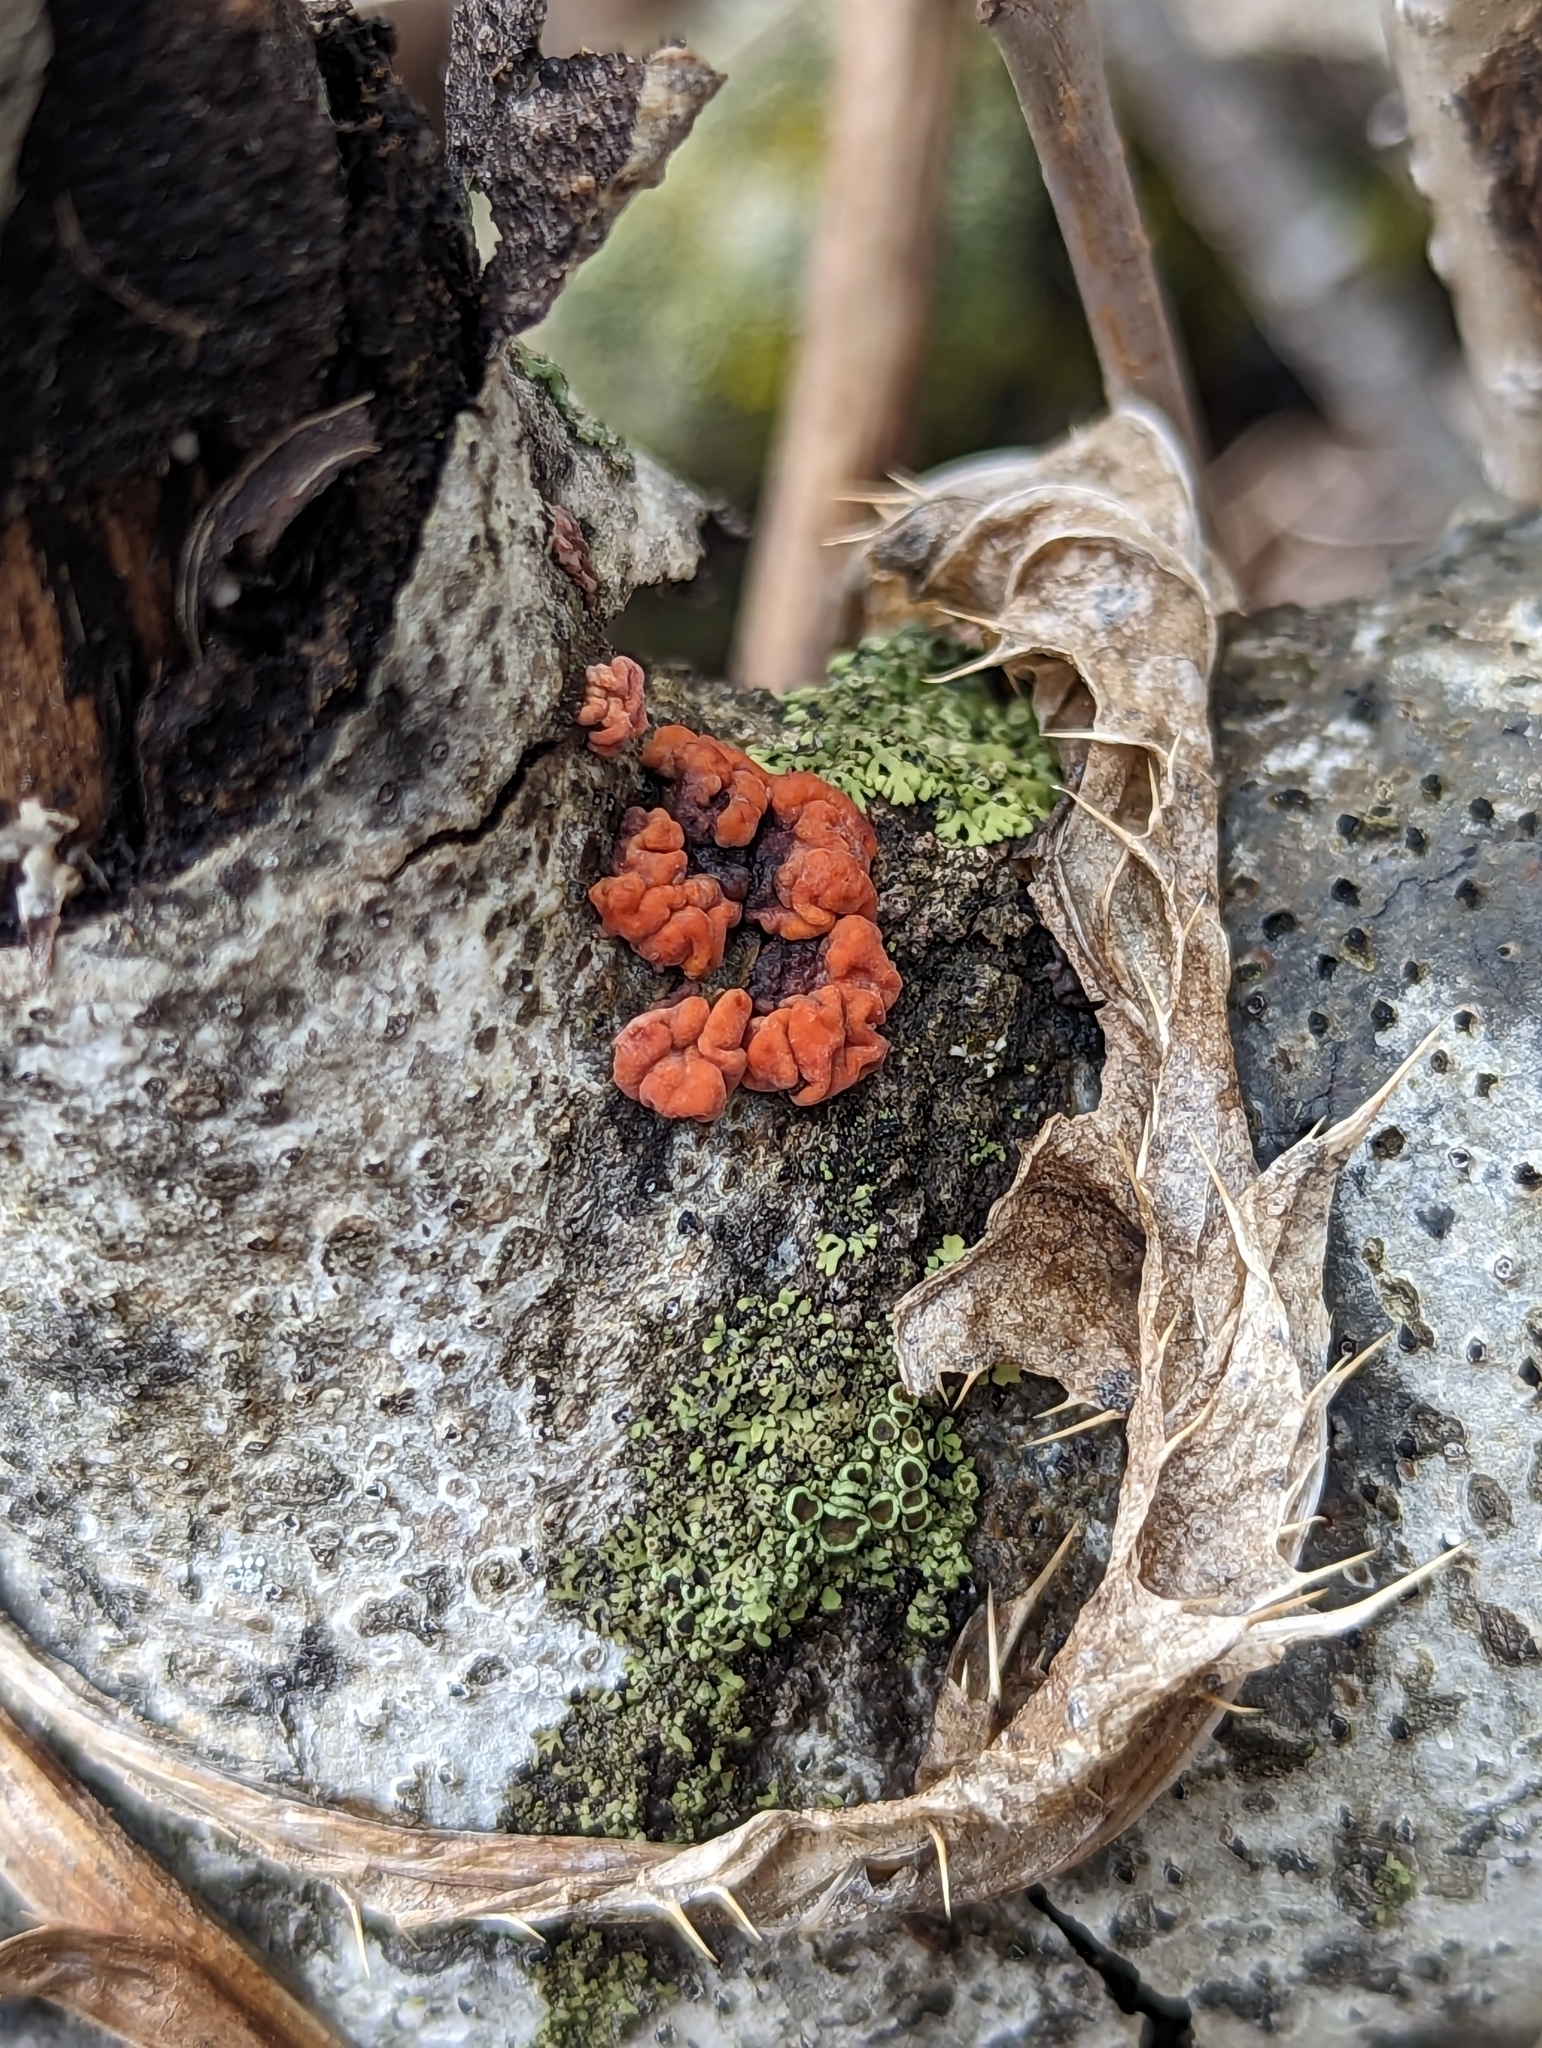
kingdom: Fungi
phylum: Basidiomycota
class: Agaricomycetes
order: Russulales
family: Peniophoraceae
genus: Peniophora
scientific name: Peniophora rufa
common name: Red tree brain fungus
